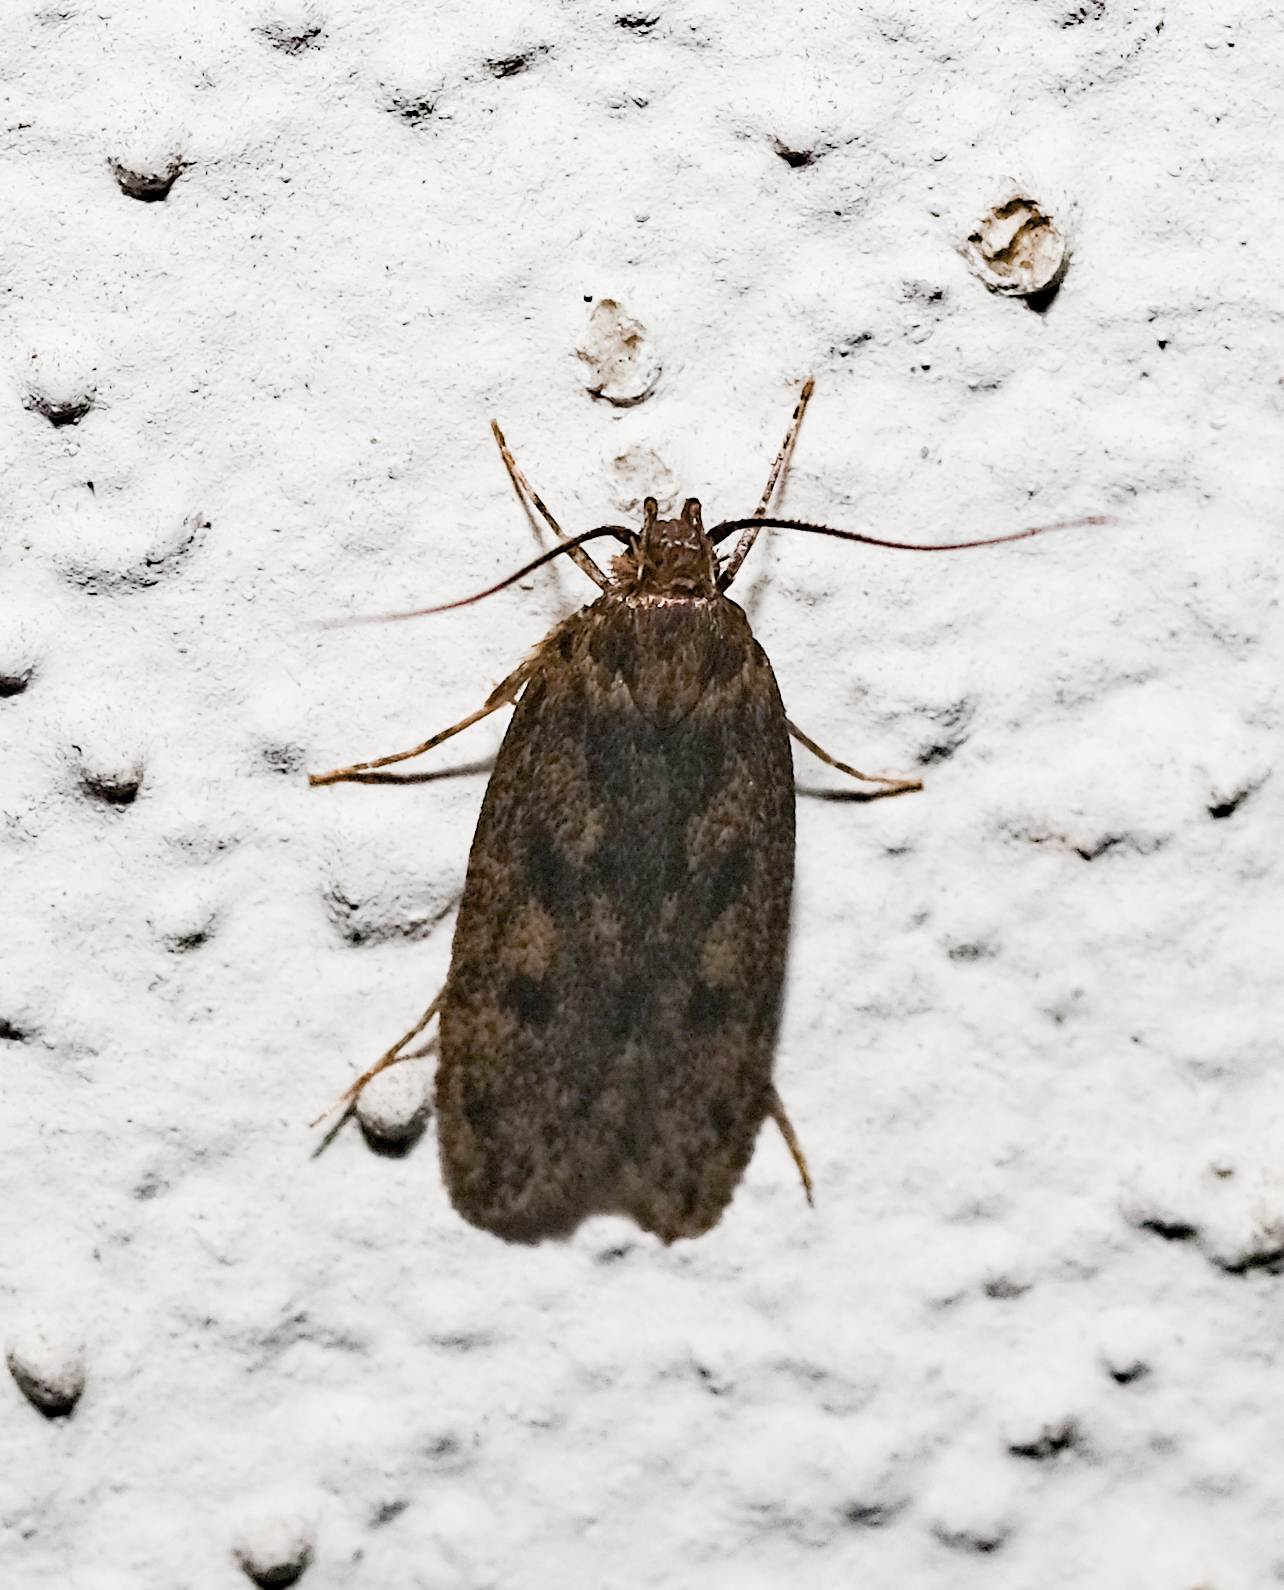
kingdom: Animalia
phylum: Arthropoda
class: Insecta
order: Lepidoptera
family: Oecophoridae
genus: Hofmannophila
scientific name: Hofmannophila pseudospretella
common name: Brown house moth
